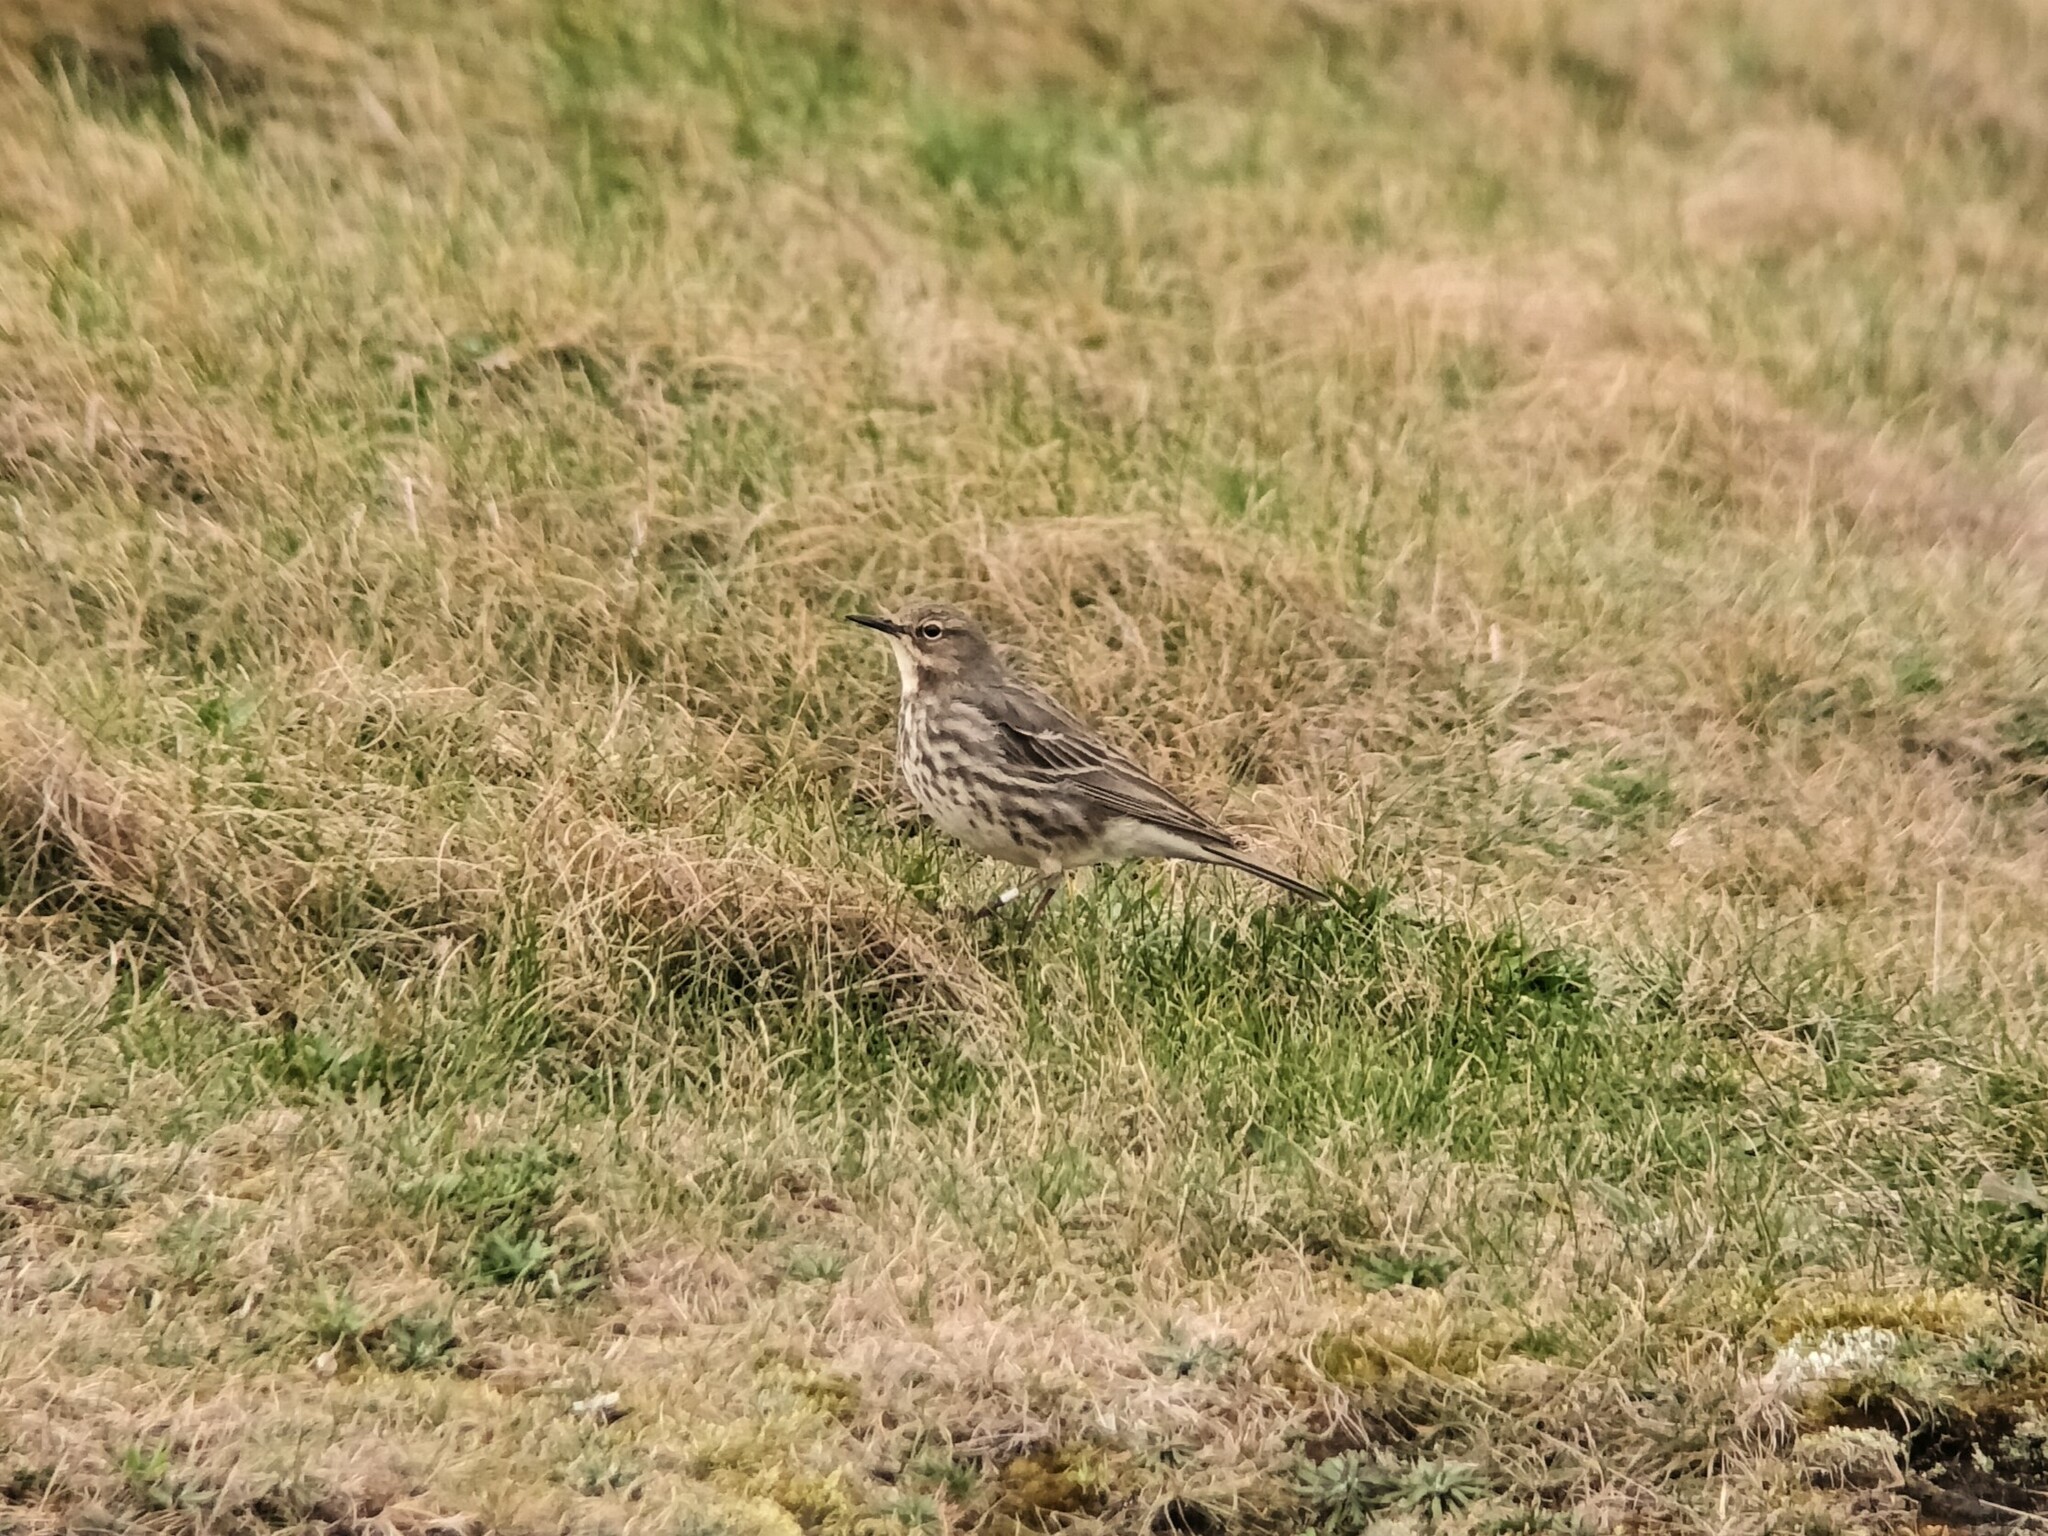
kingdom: Animalia
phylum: Chordata
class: Aves
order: Passeriformes
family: Motacillidae
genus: Anthus
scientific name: Anthus petrosus
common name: Eurasian rock pipit
